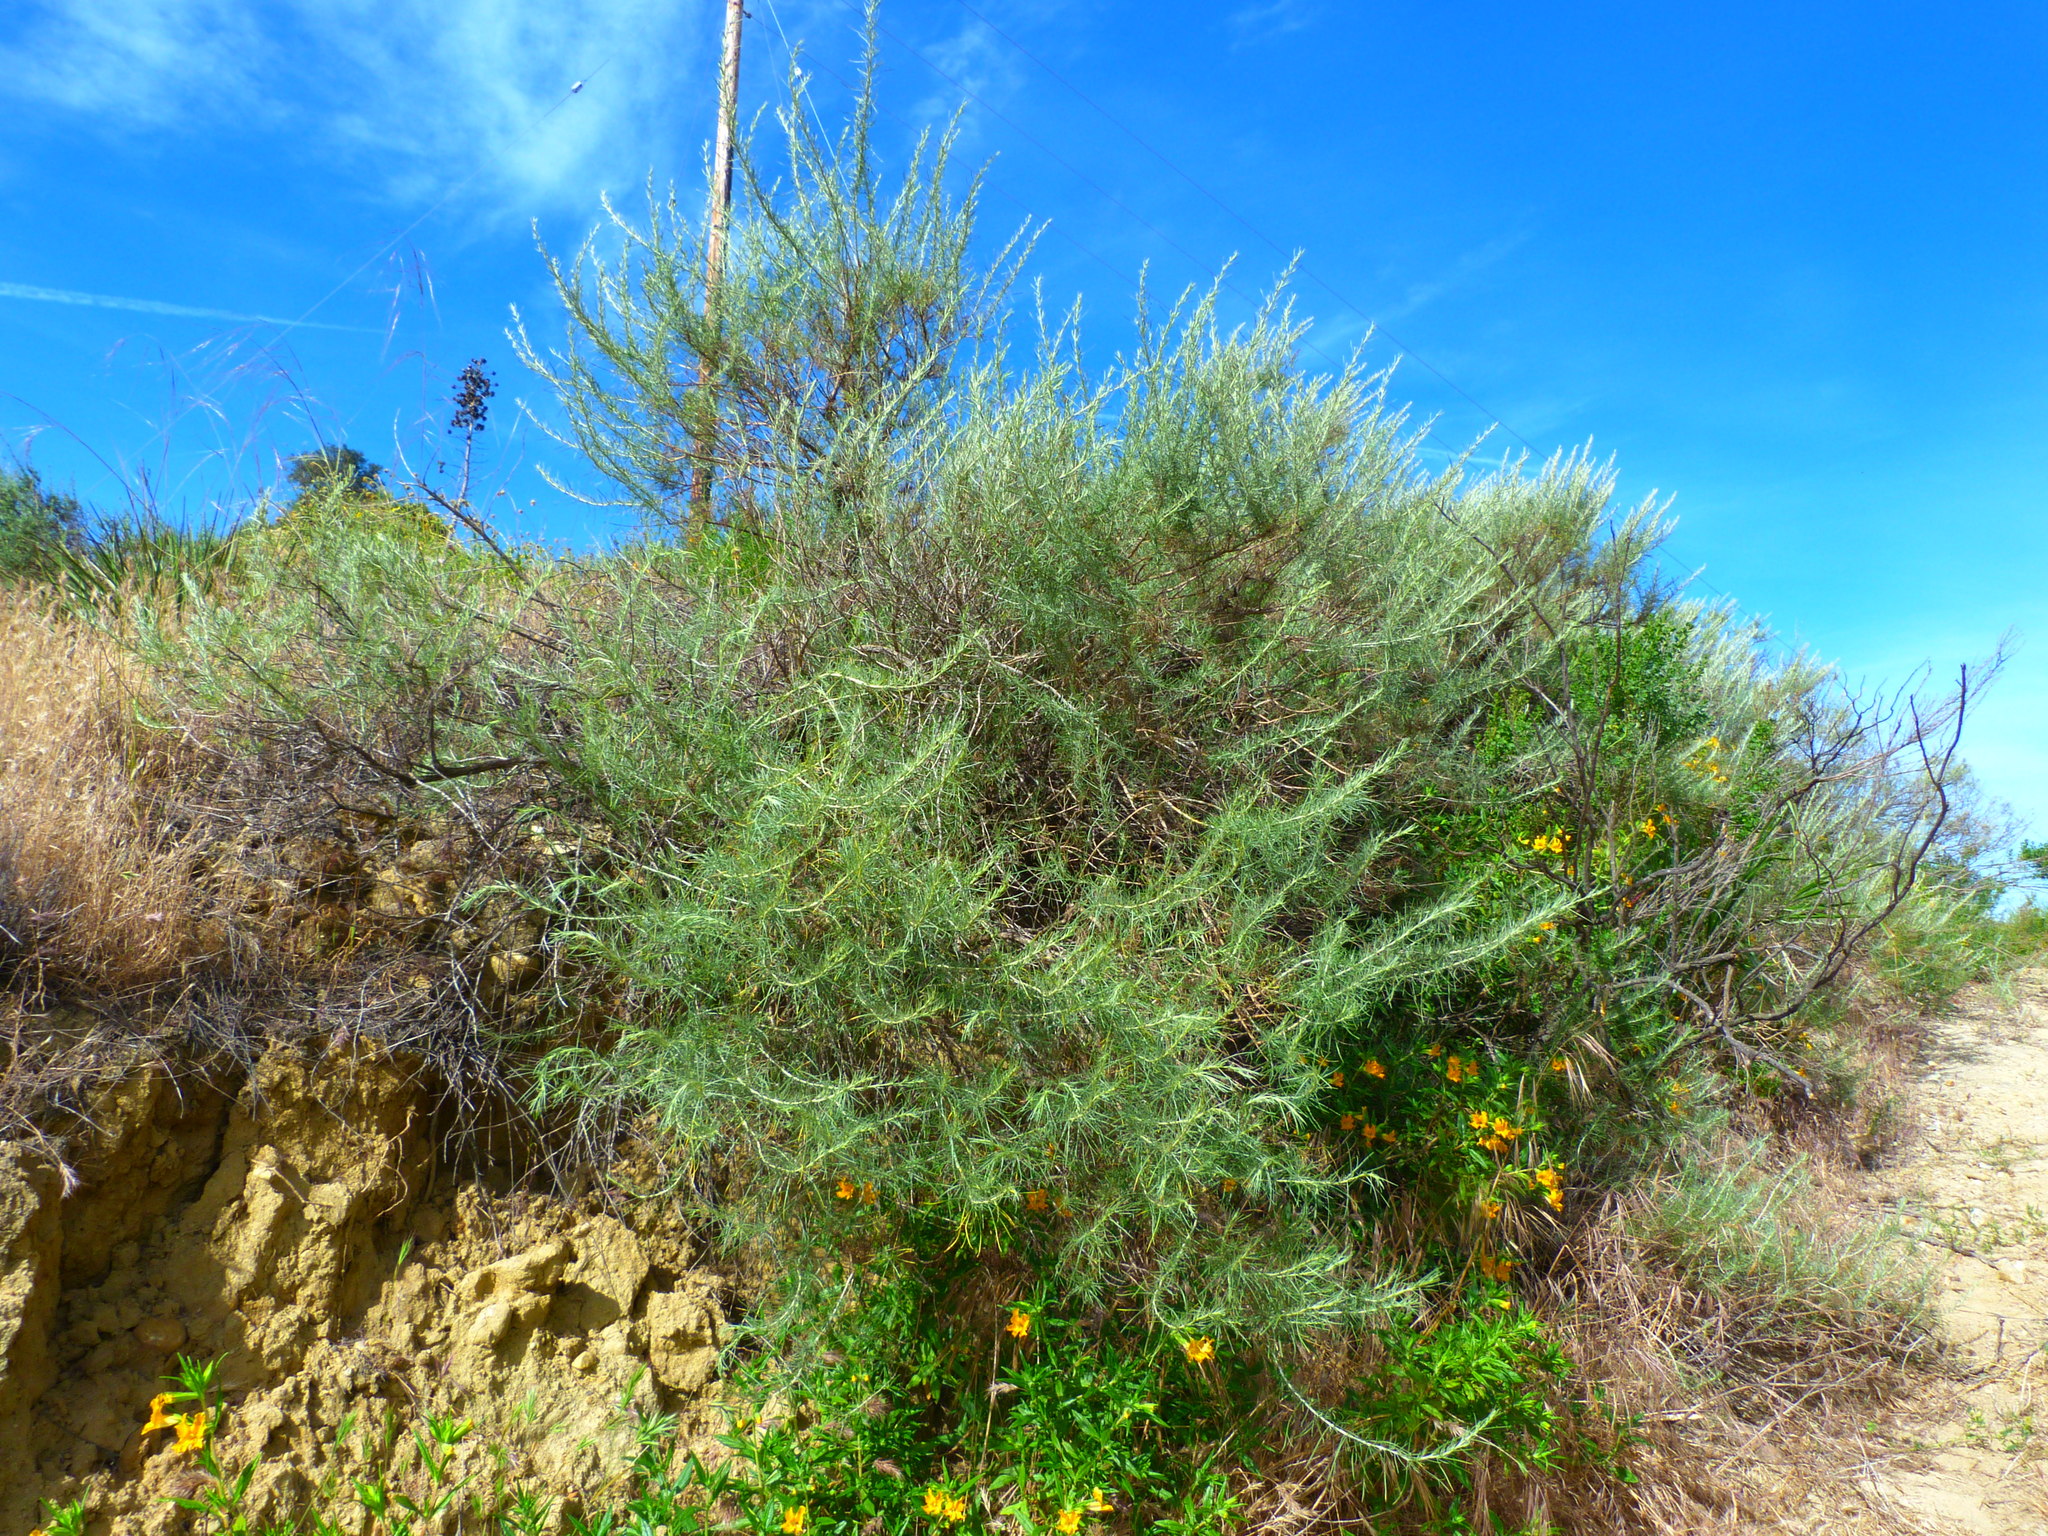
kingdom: Plantae
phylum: Tracheophyta
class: Magnoliopsida
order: Asterales
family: Asteraceae
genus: Artemisia
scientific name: Artemisia californica
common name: California sagebrush
